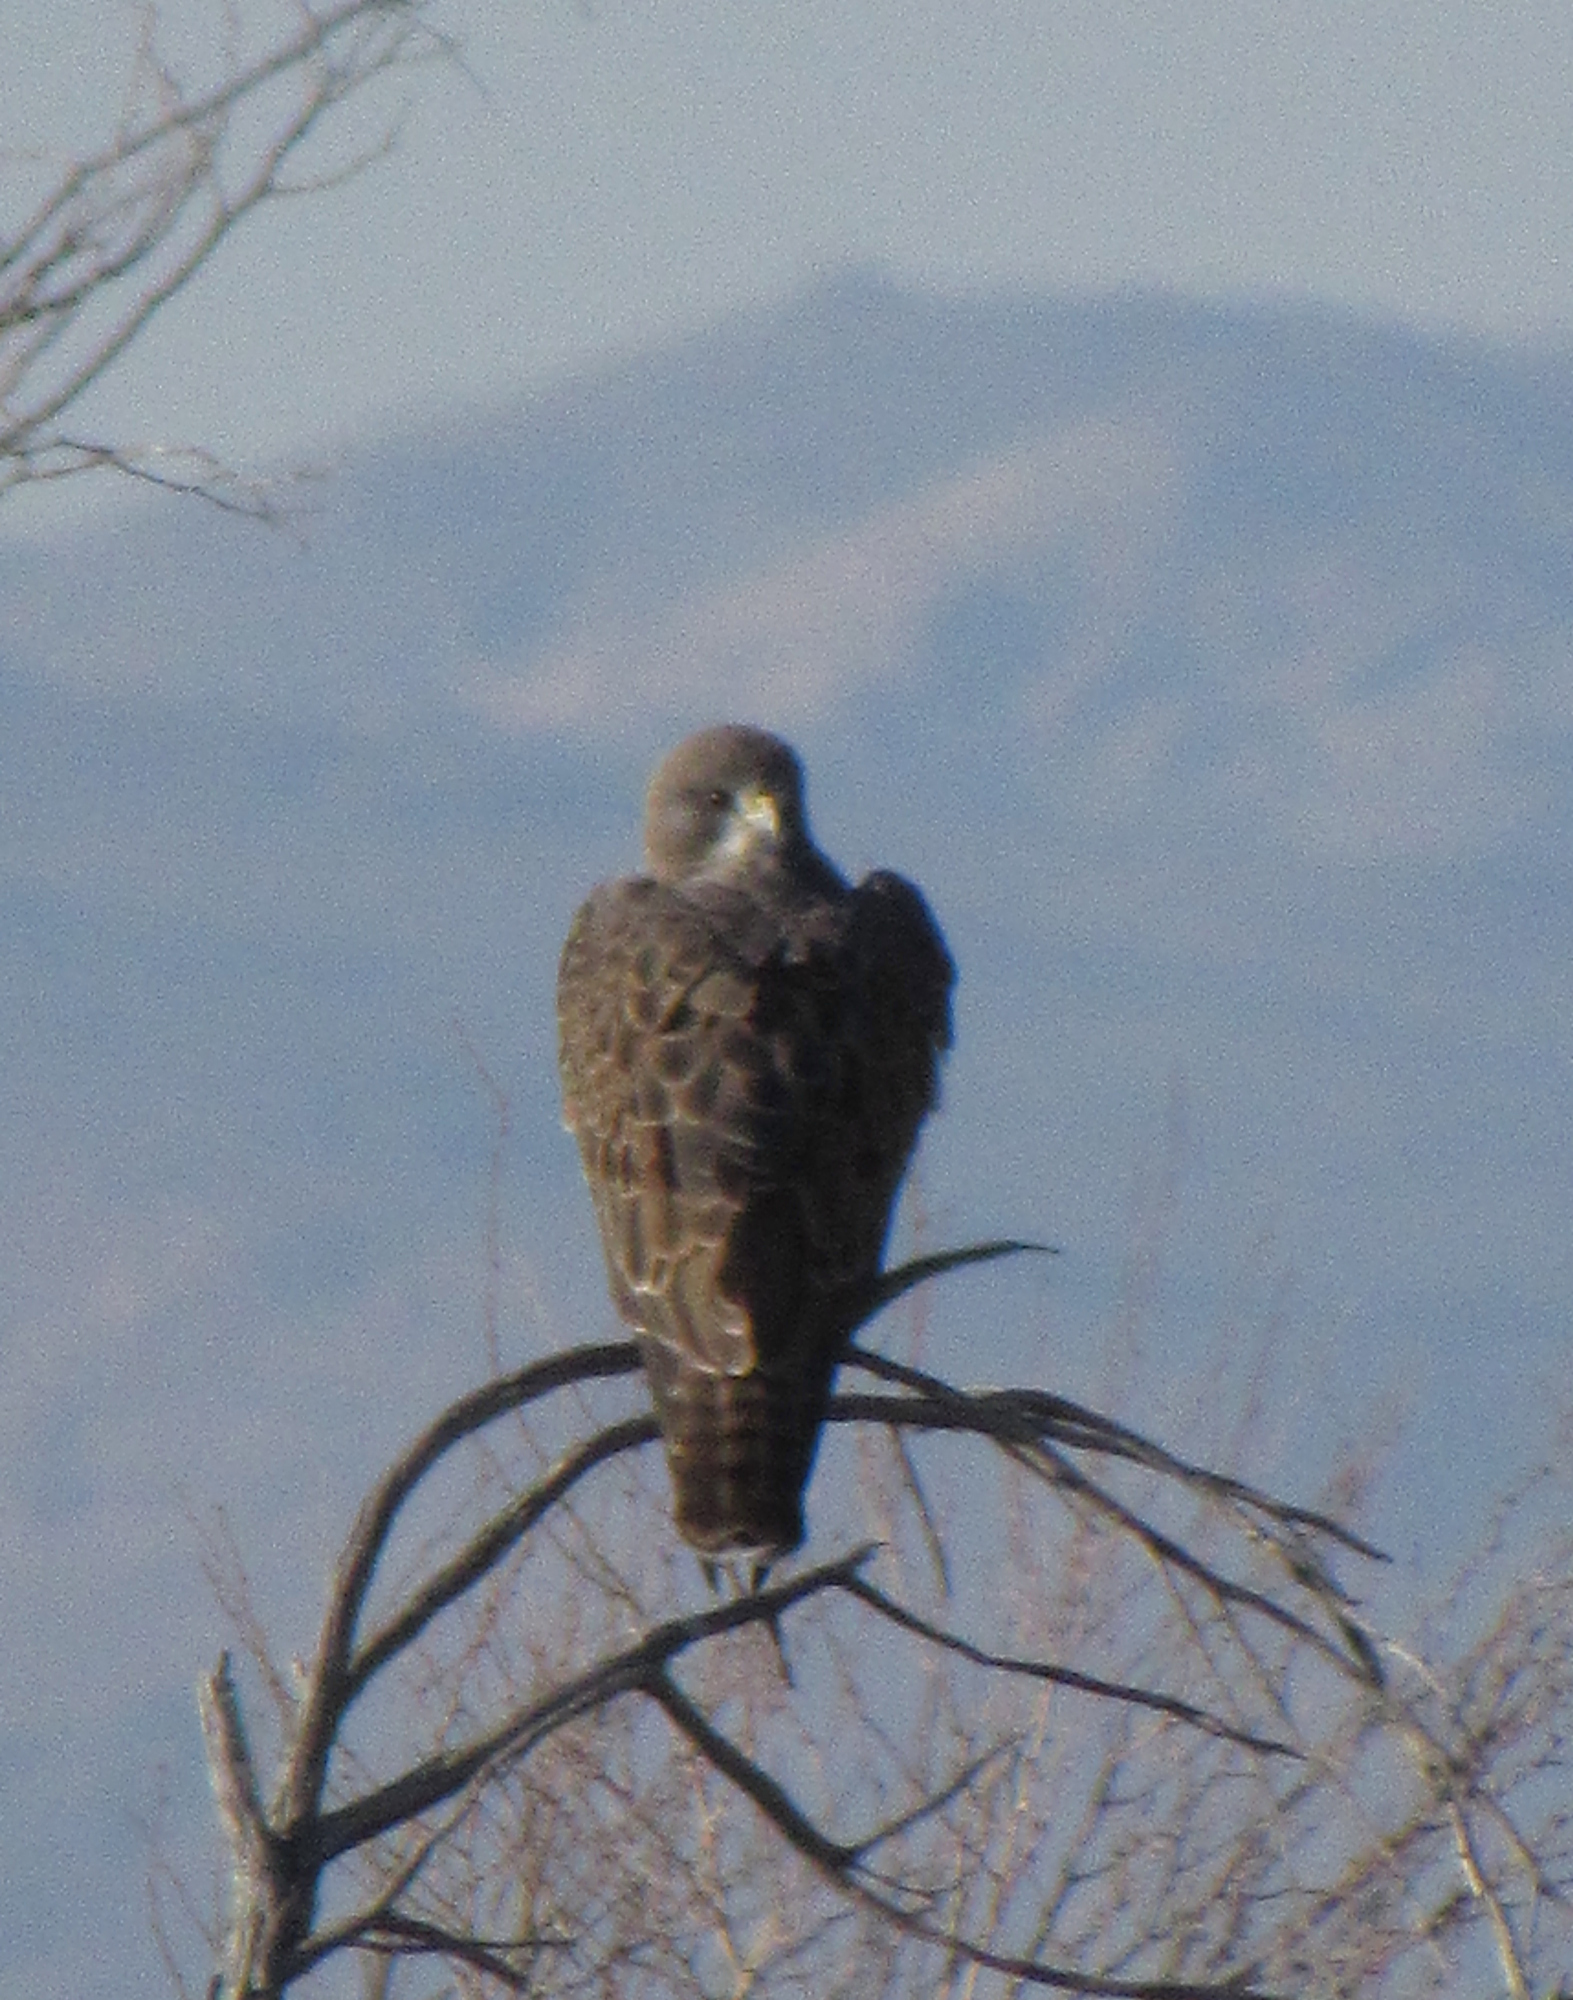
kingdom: Animalia
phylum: Chordata
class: Aves
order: Accipitriformes
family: Accipitridae
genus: Buteo
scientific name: Buteo swainsoni
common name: Swainson's hawk
